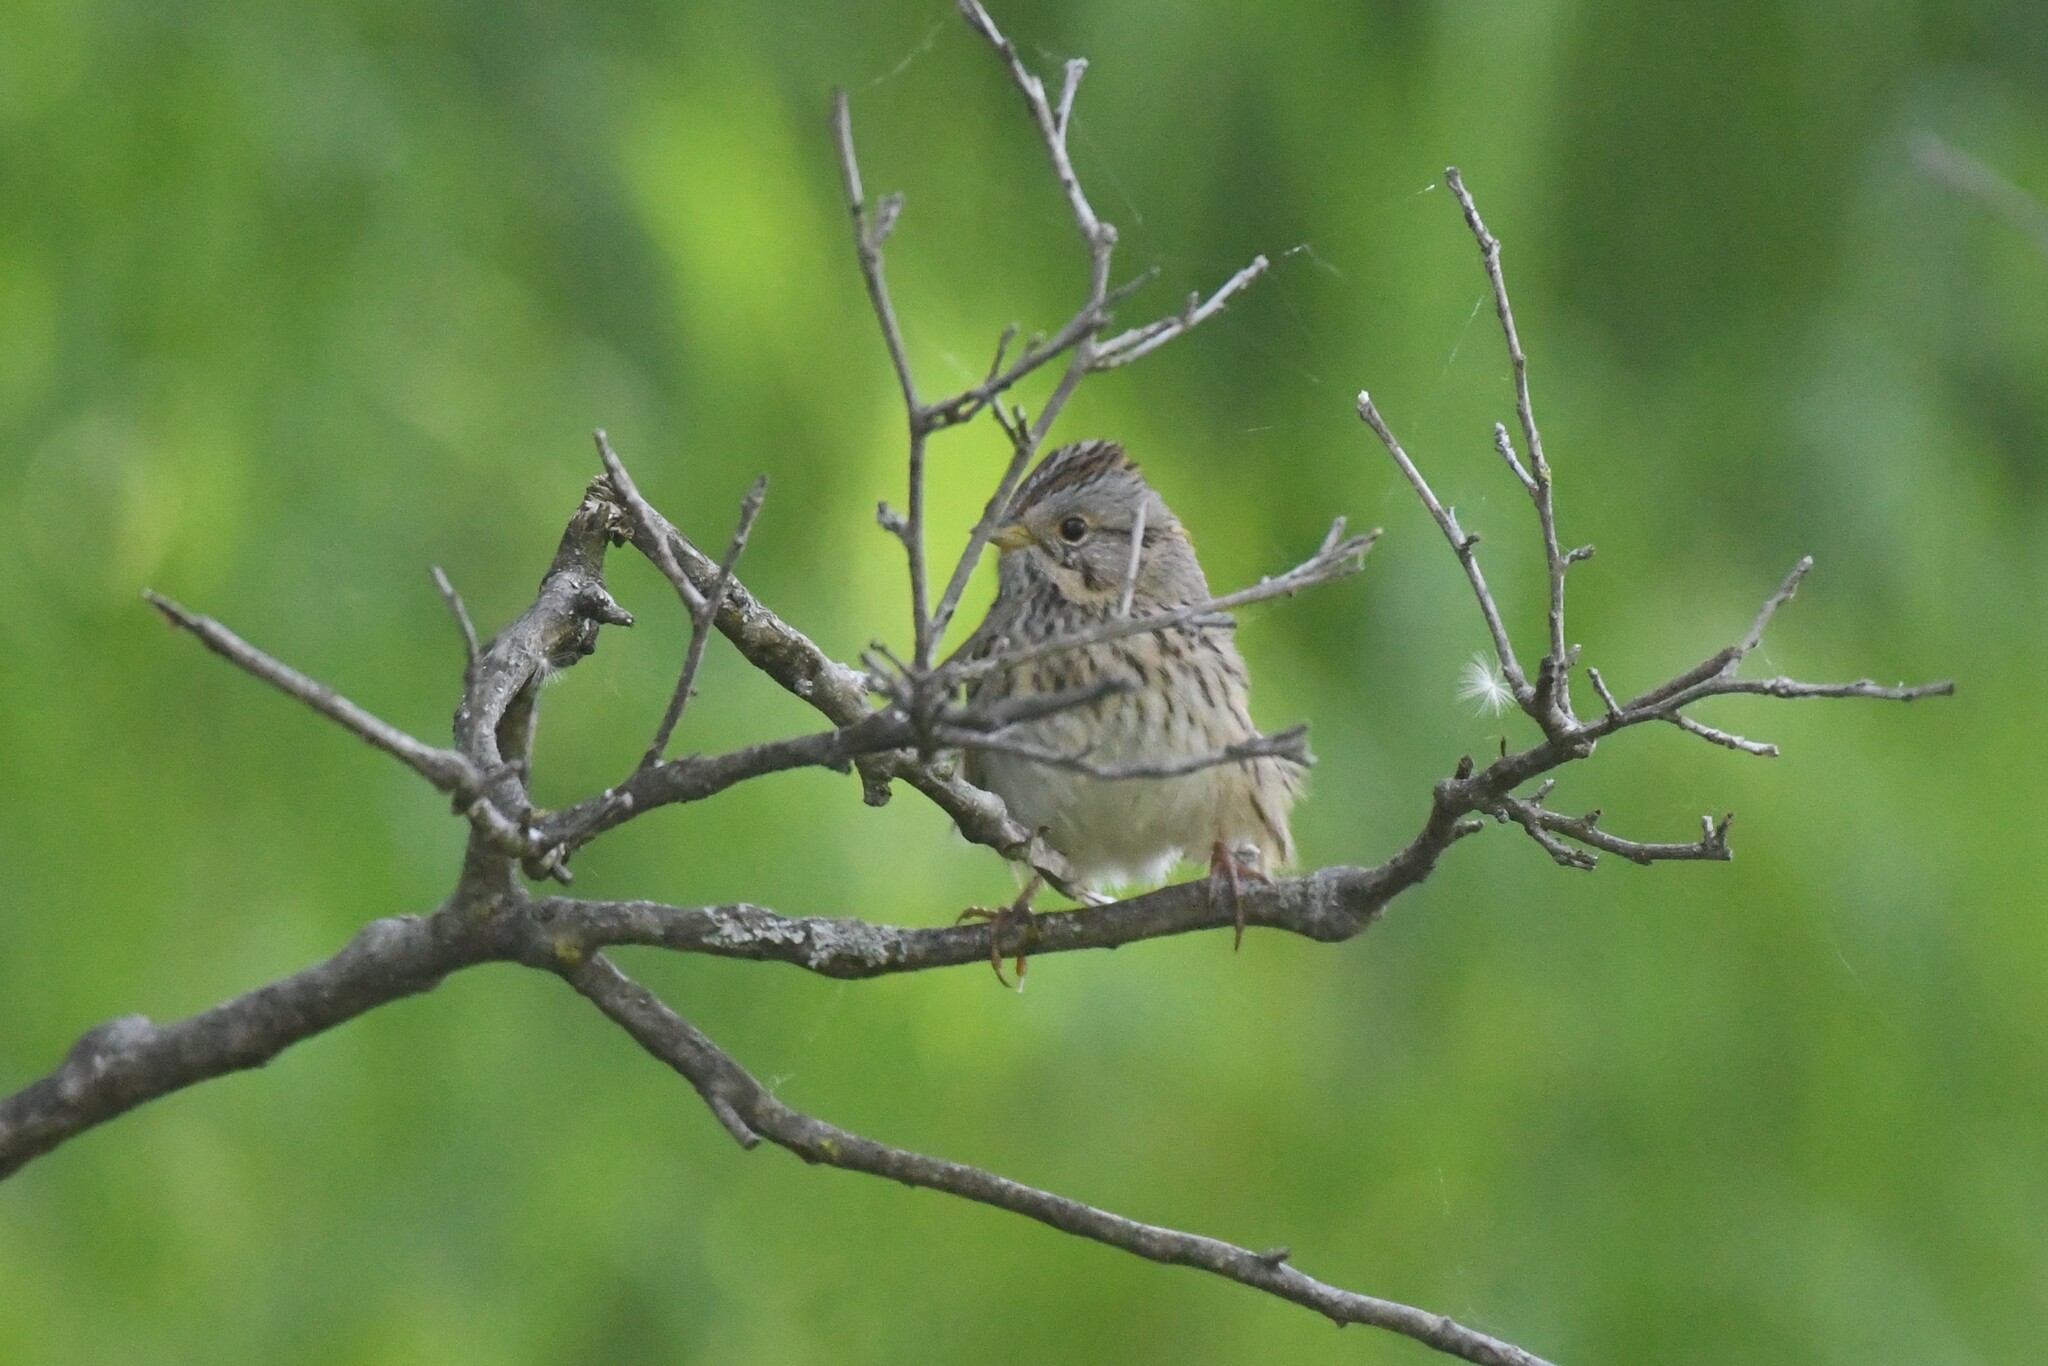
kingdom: Animalia
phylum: Chordata
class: Aves
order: Passeriformes
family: Passerellidae
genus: Melospiza
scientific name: Melospiza lincolnii
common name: Lincoln's sparrow
